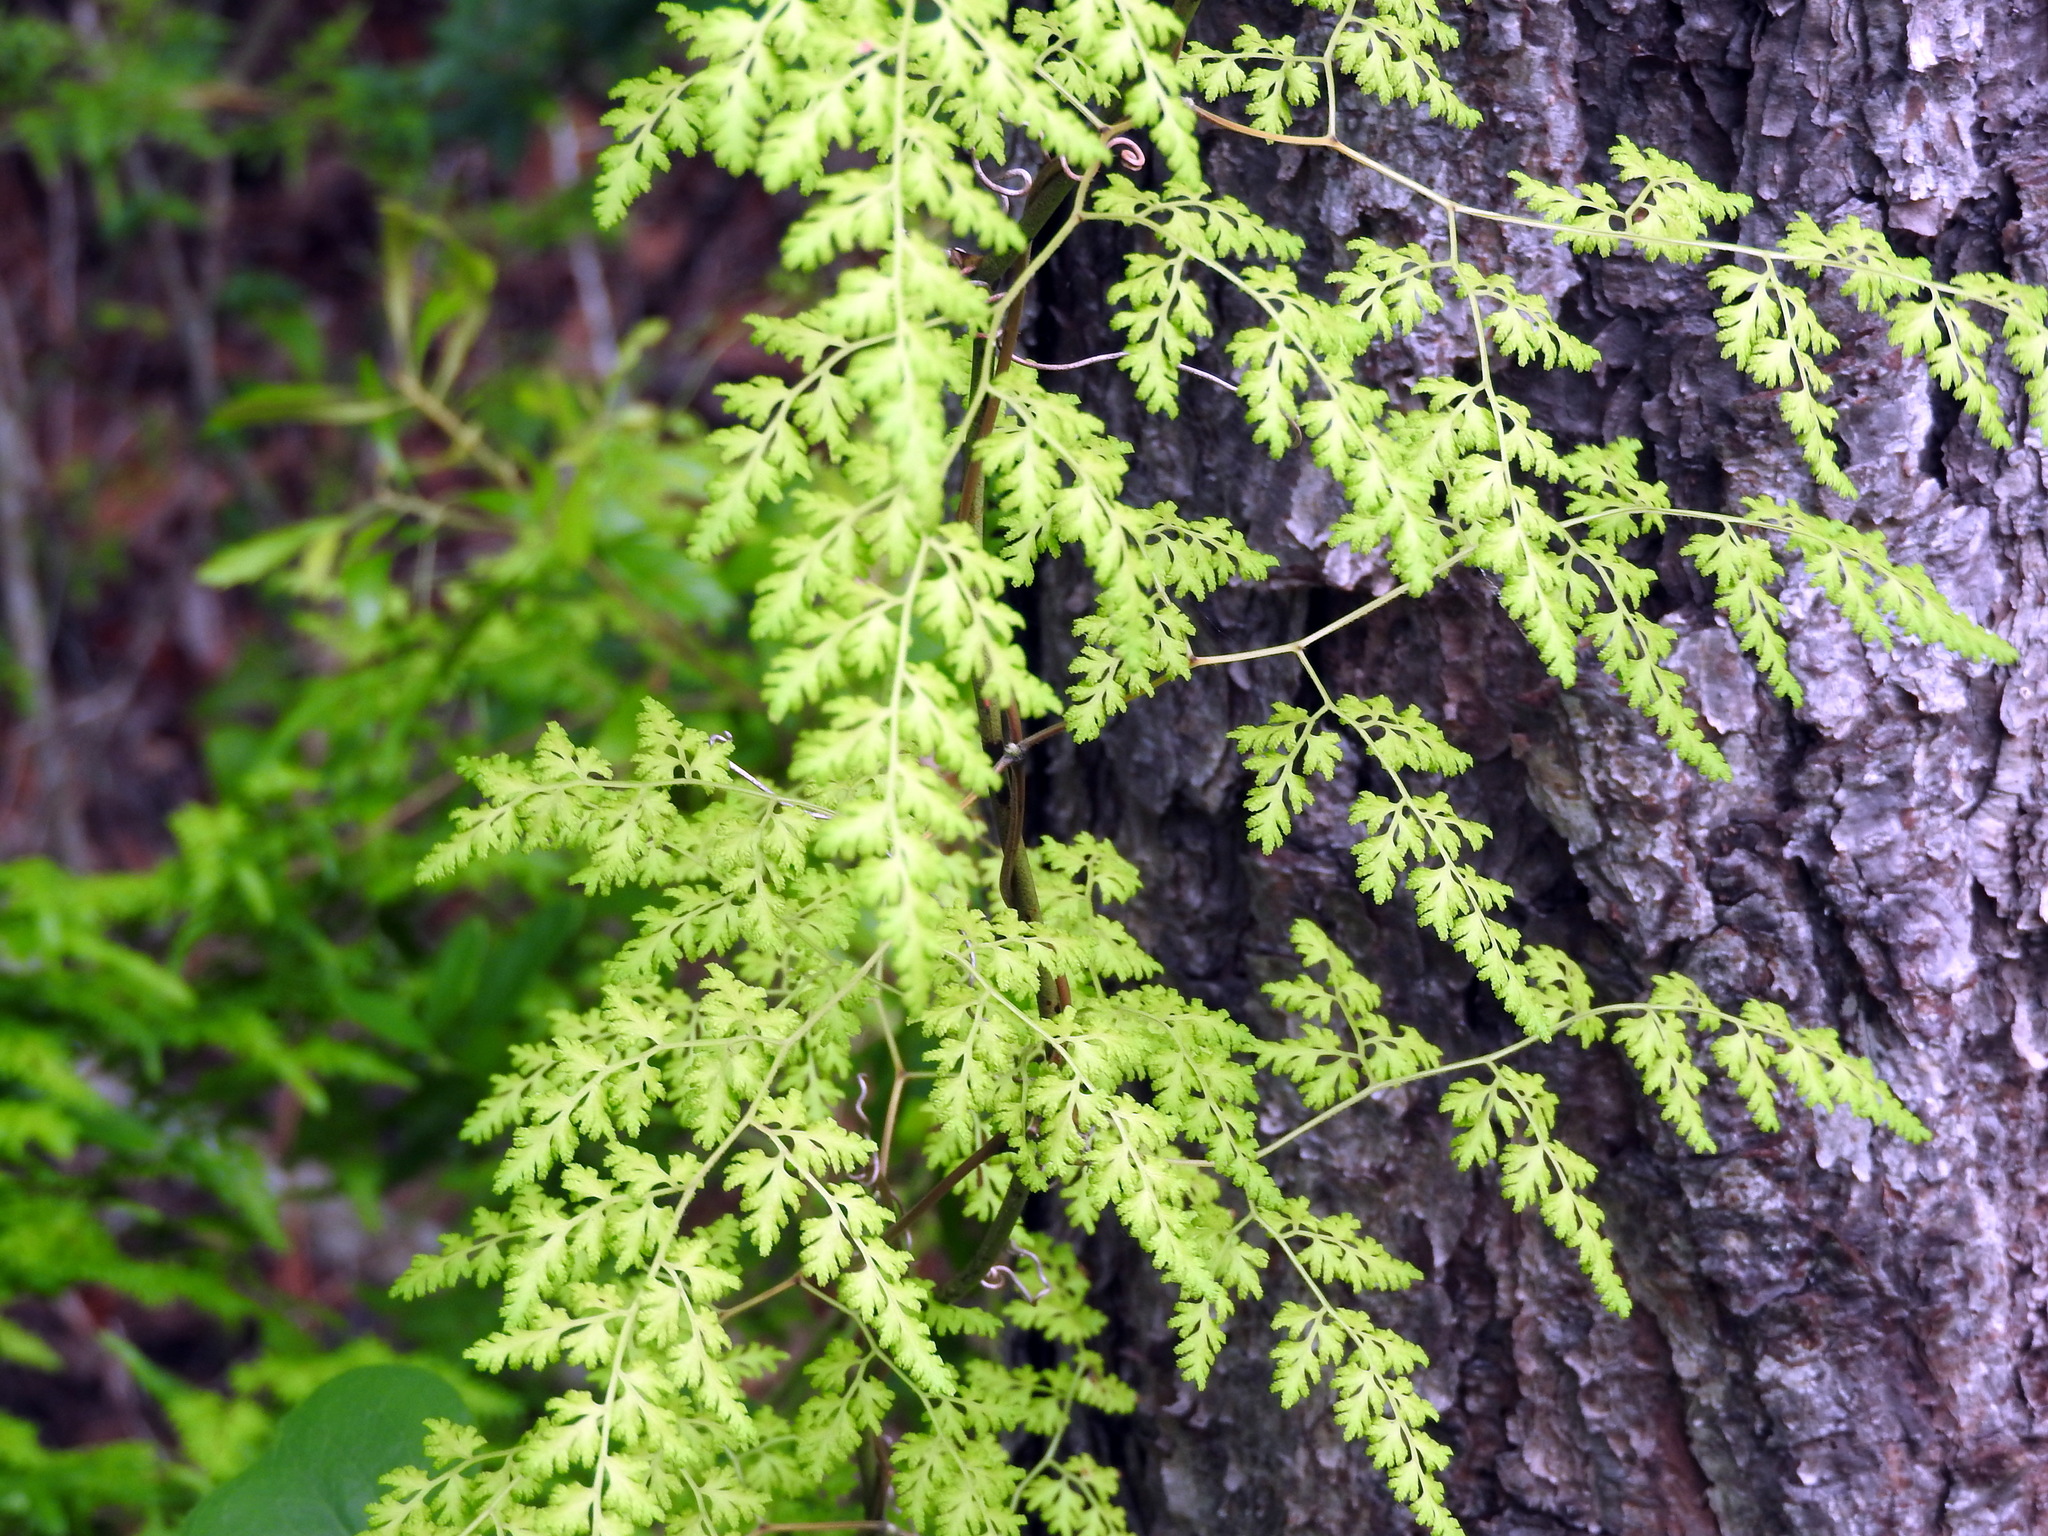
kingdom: Plantae
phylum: Tracheophyta
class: Polypodiopsida
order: Schizaeales
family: Lygodiaceae
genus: Lygodium
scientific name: Lygodium japonicum
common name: Japanese climbing fern
